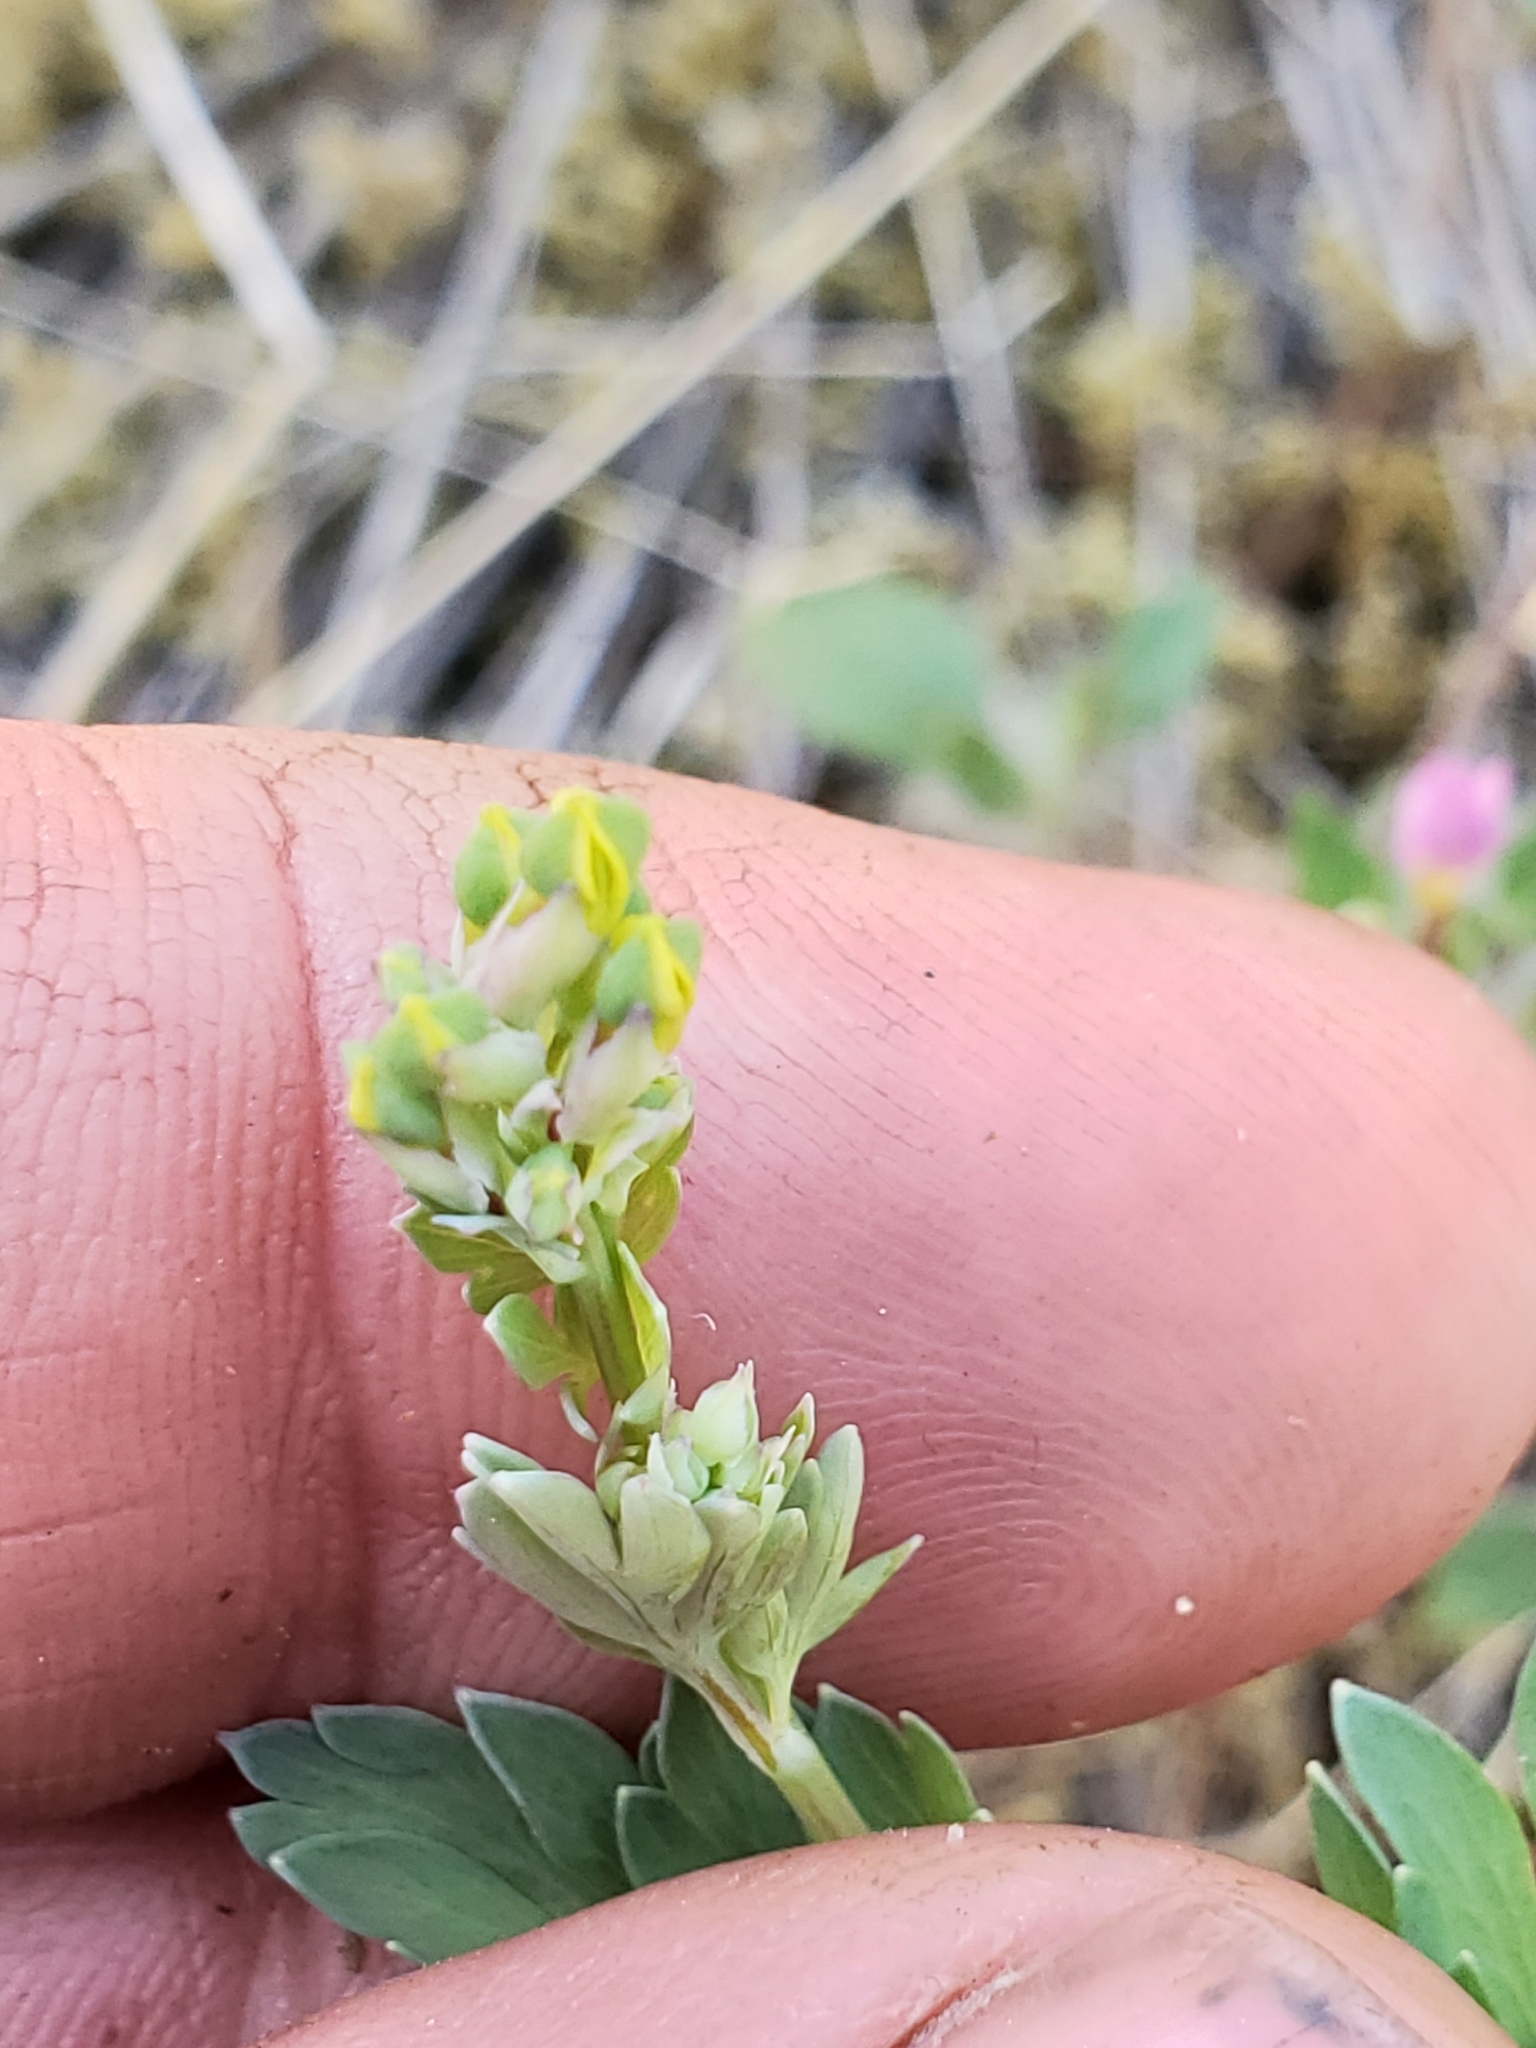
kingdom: Plantae
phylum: Tracheophyta
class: Magnoliopsida
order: Ranunculales
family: Papaveraceae
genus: Capnoides
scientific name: Capnoides sempervirens
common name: Rock harlequin
